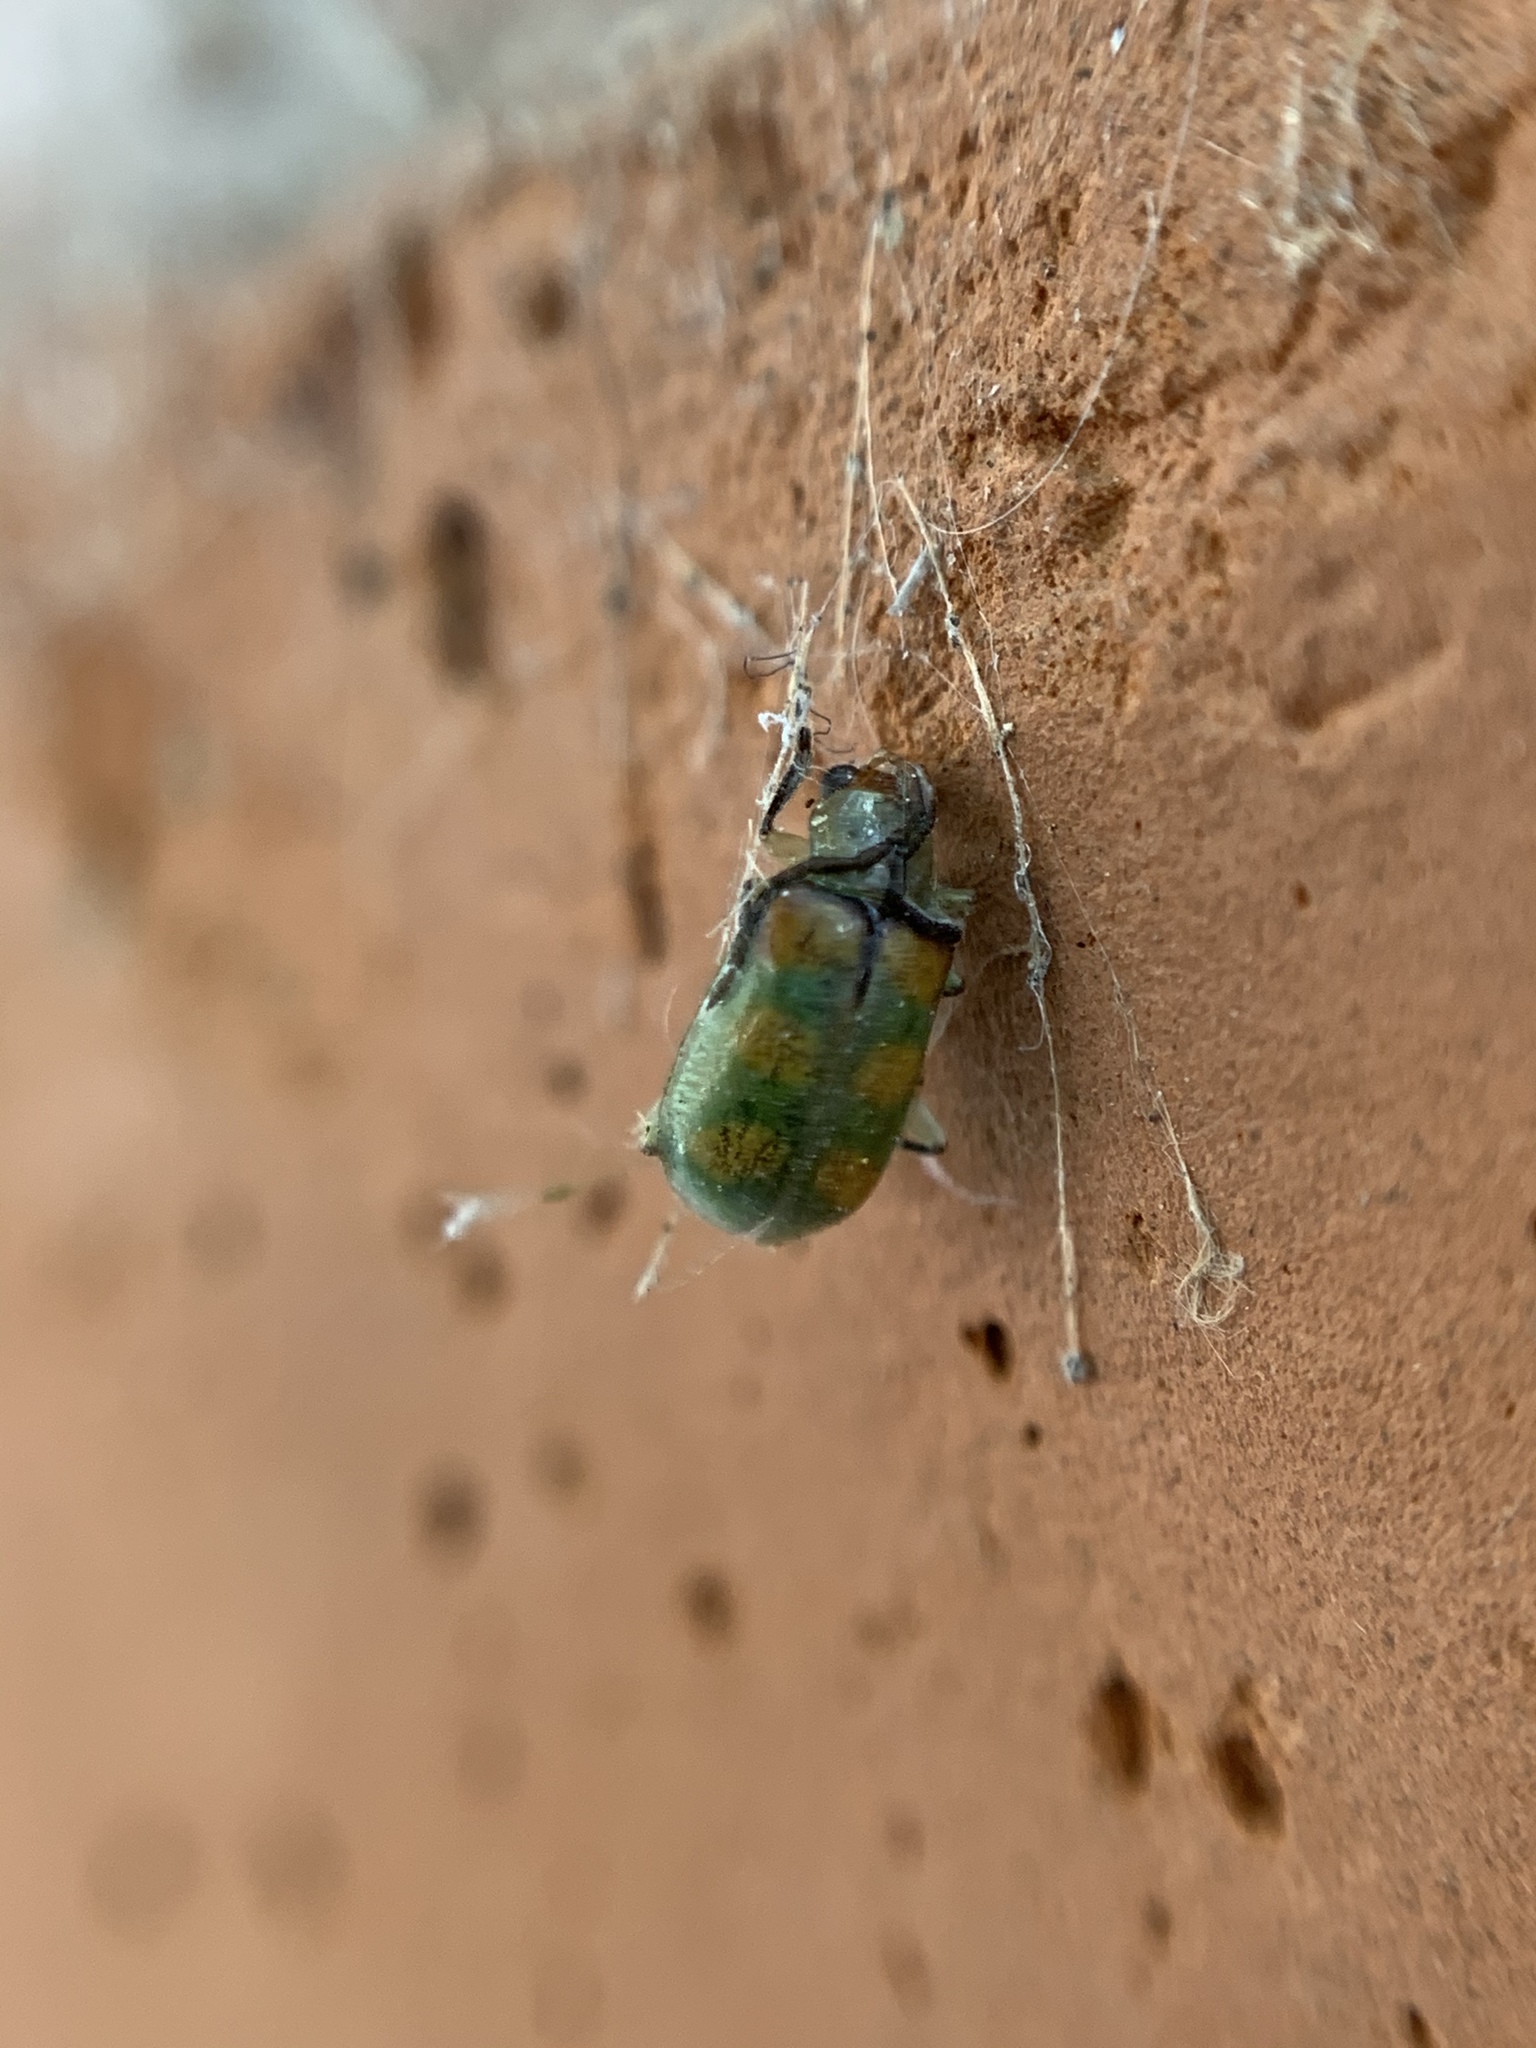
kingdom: Animalia
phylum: Arthropoda
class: Insecta
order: Coleoptera
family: Chrysomelidae
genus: Diabrotica
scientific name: Diabrotica speciosa
